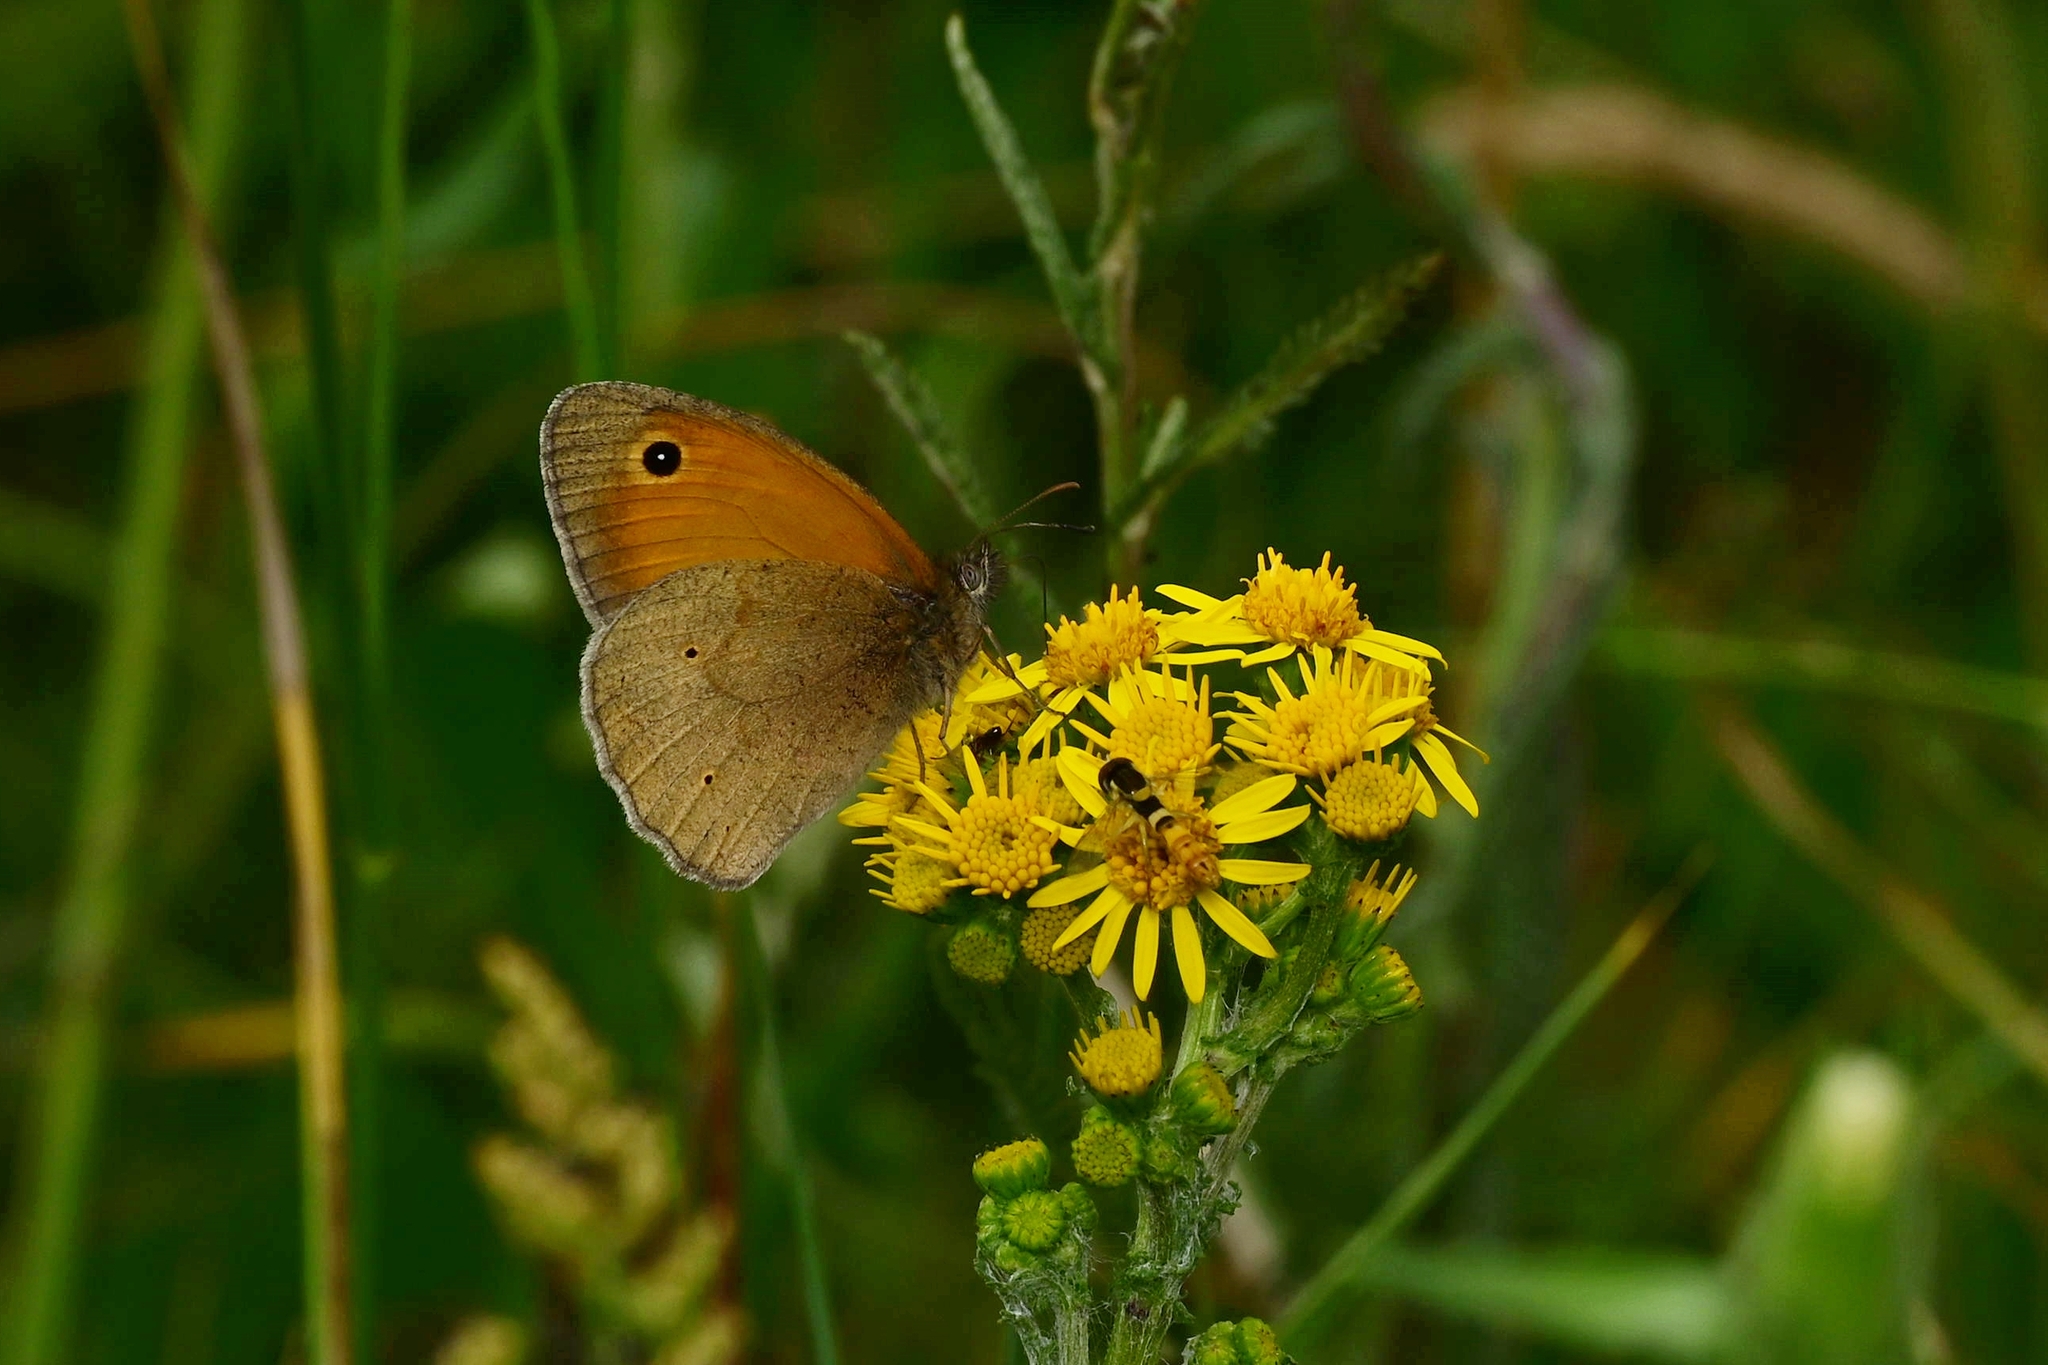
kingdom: Animalia
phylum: Arthropoda
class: Insecta
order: Lepidoptera
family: Nymphalidae
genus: Maniola
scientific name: Maniola jurtina
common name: Meadow brown
